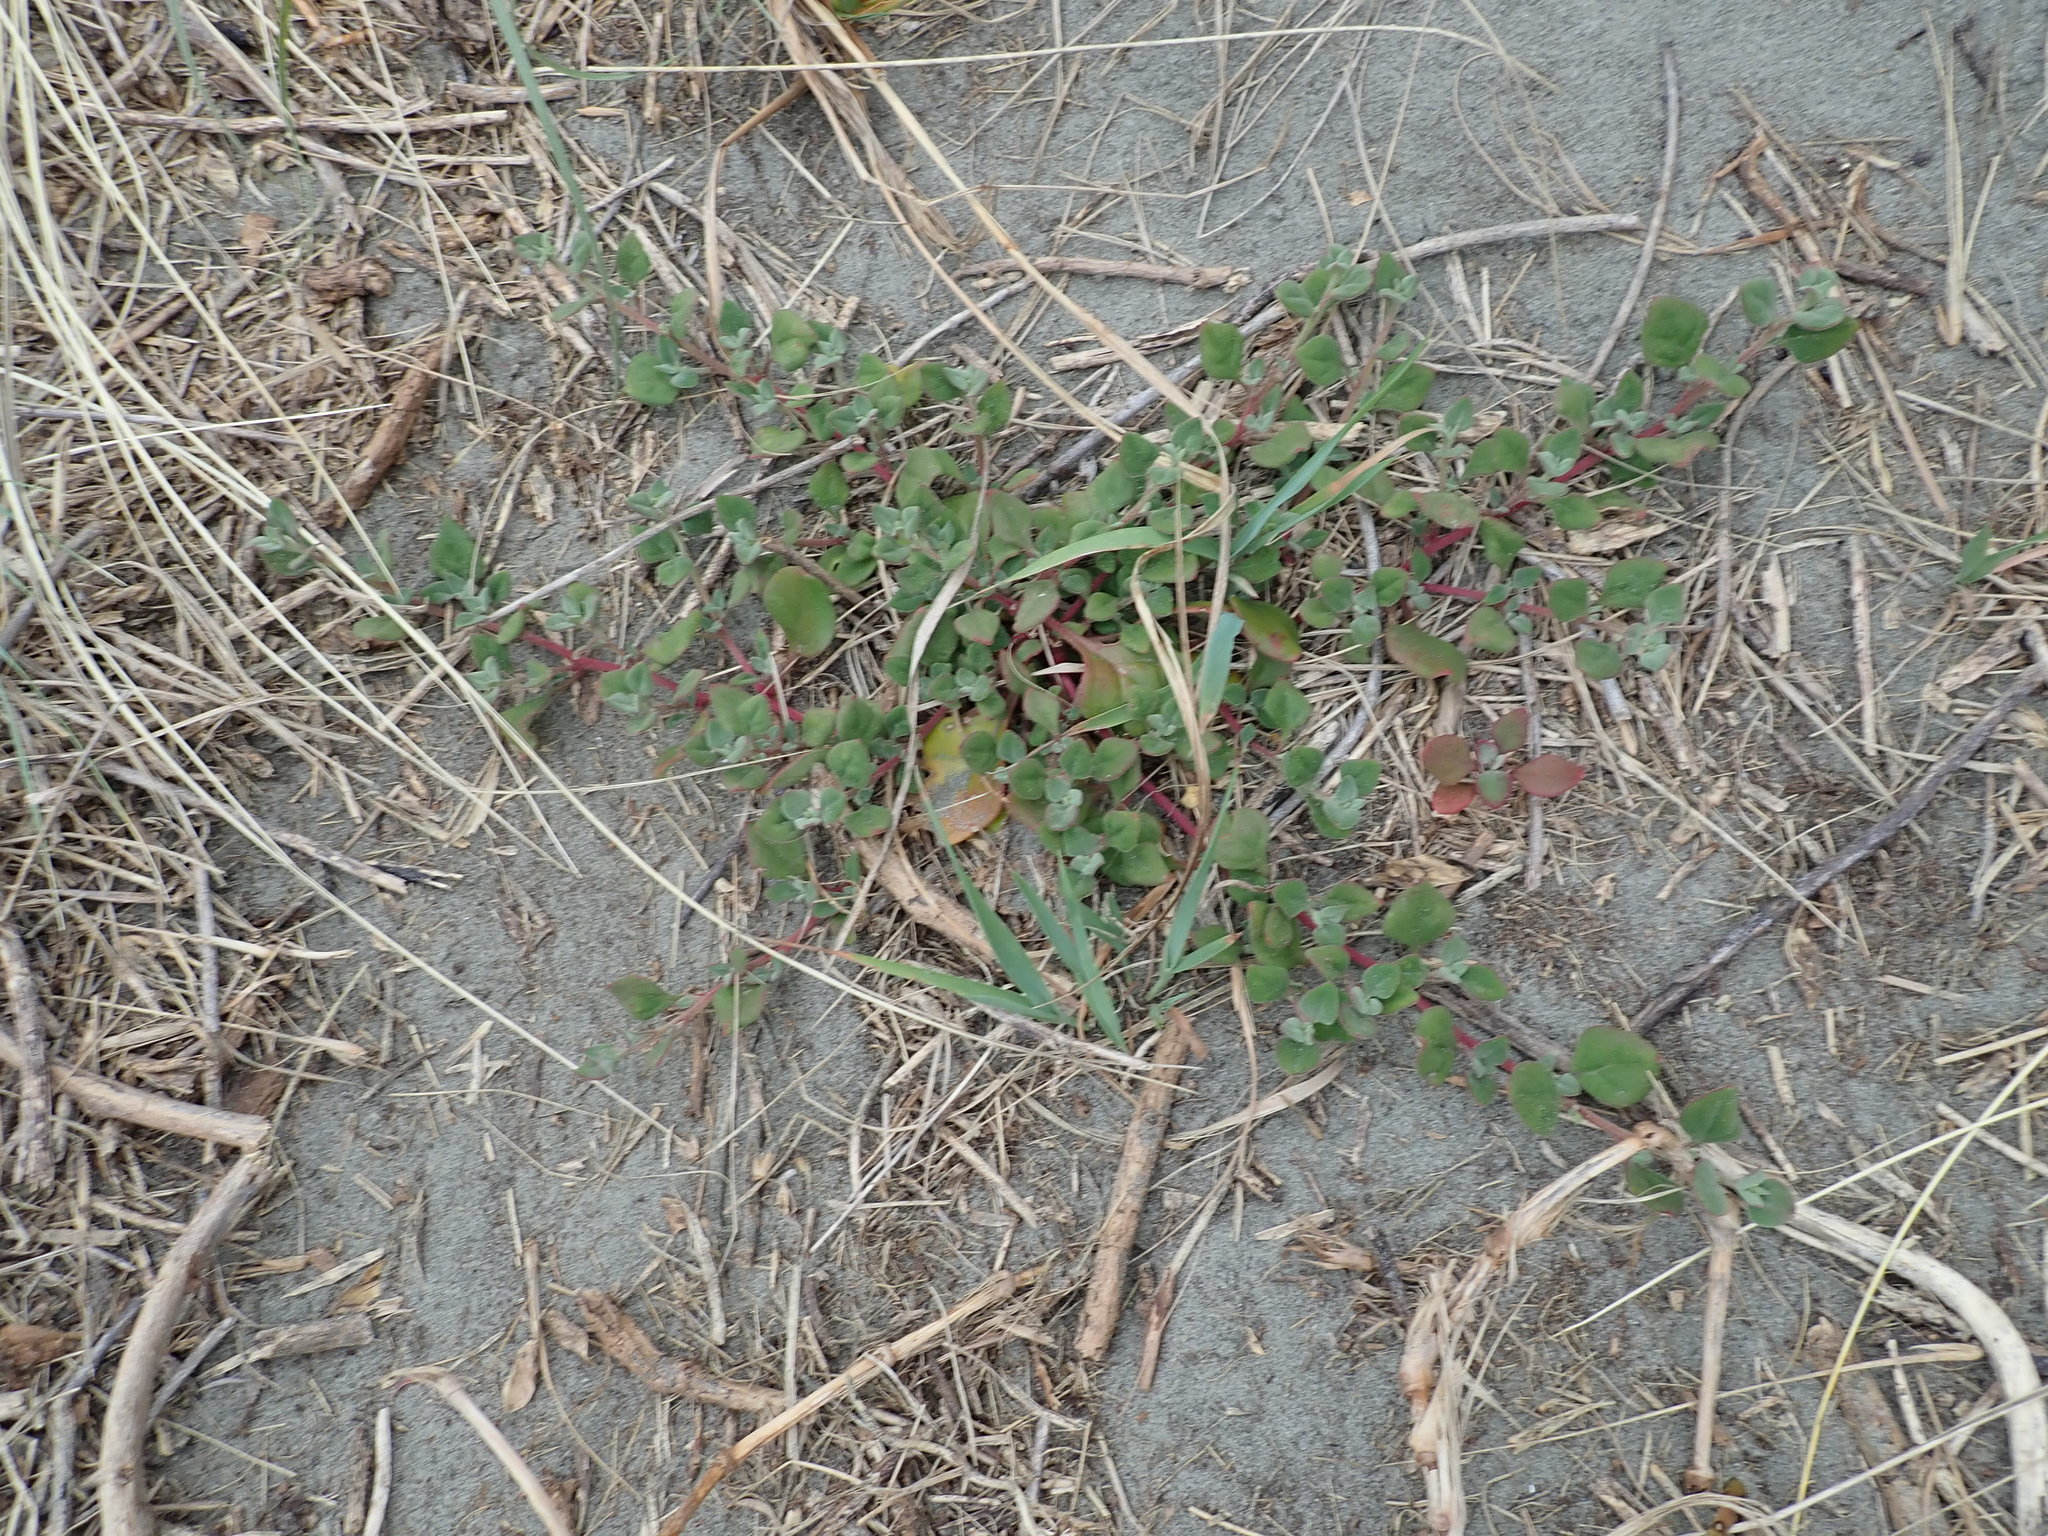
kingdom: Plantae
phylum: Tracheophyta
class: Magnoliopsida
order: Caryophyllales
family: Aizoaceae
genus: Tetragonia
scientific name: Tetragonia implexicoma
